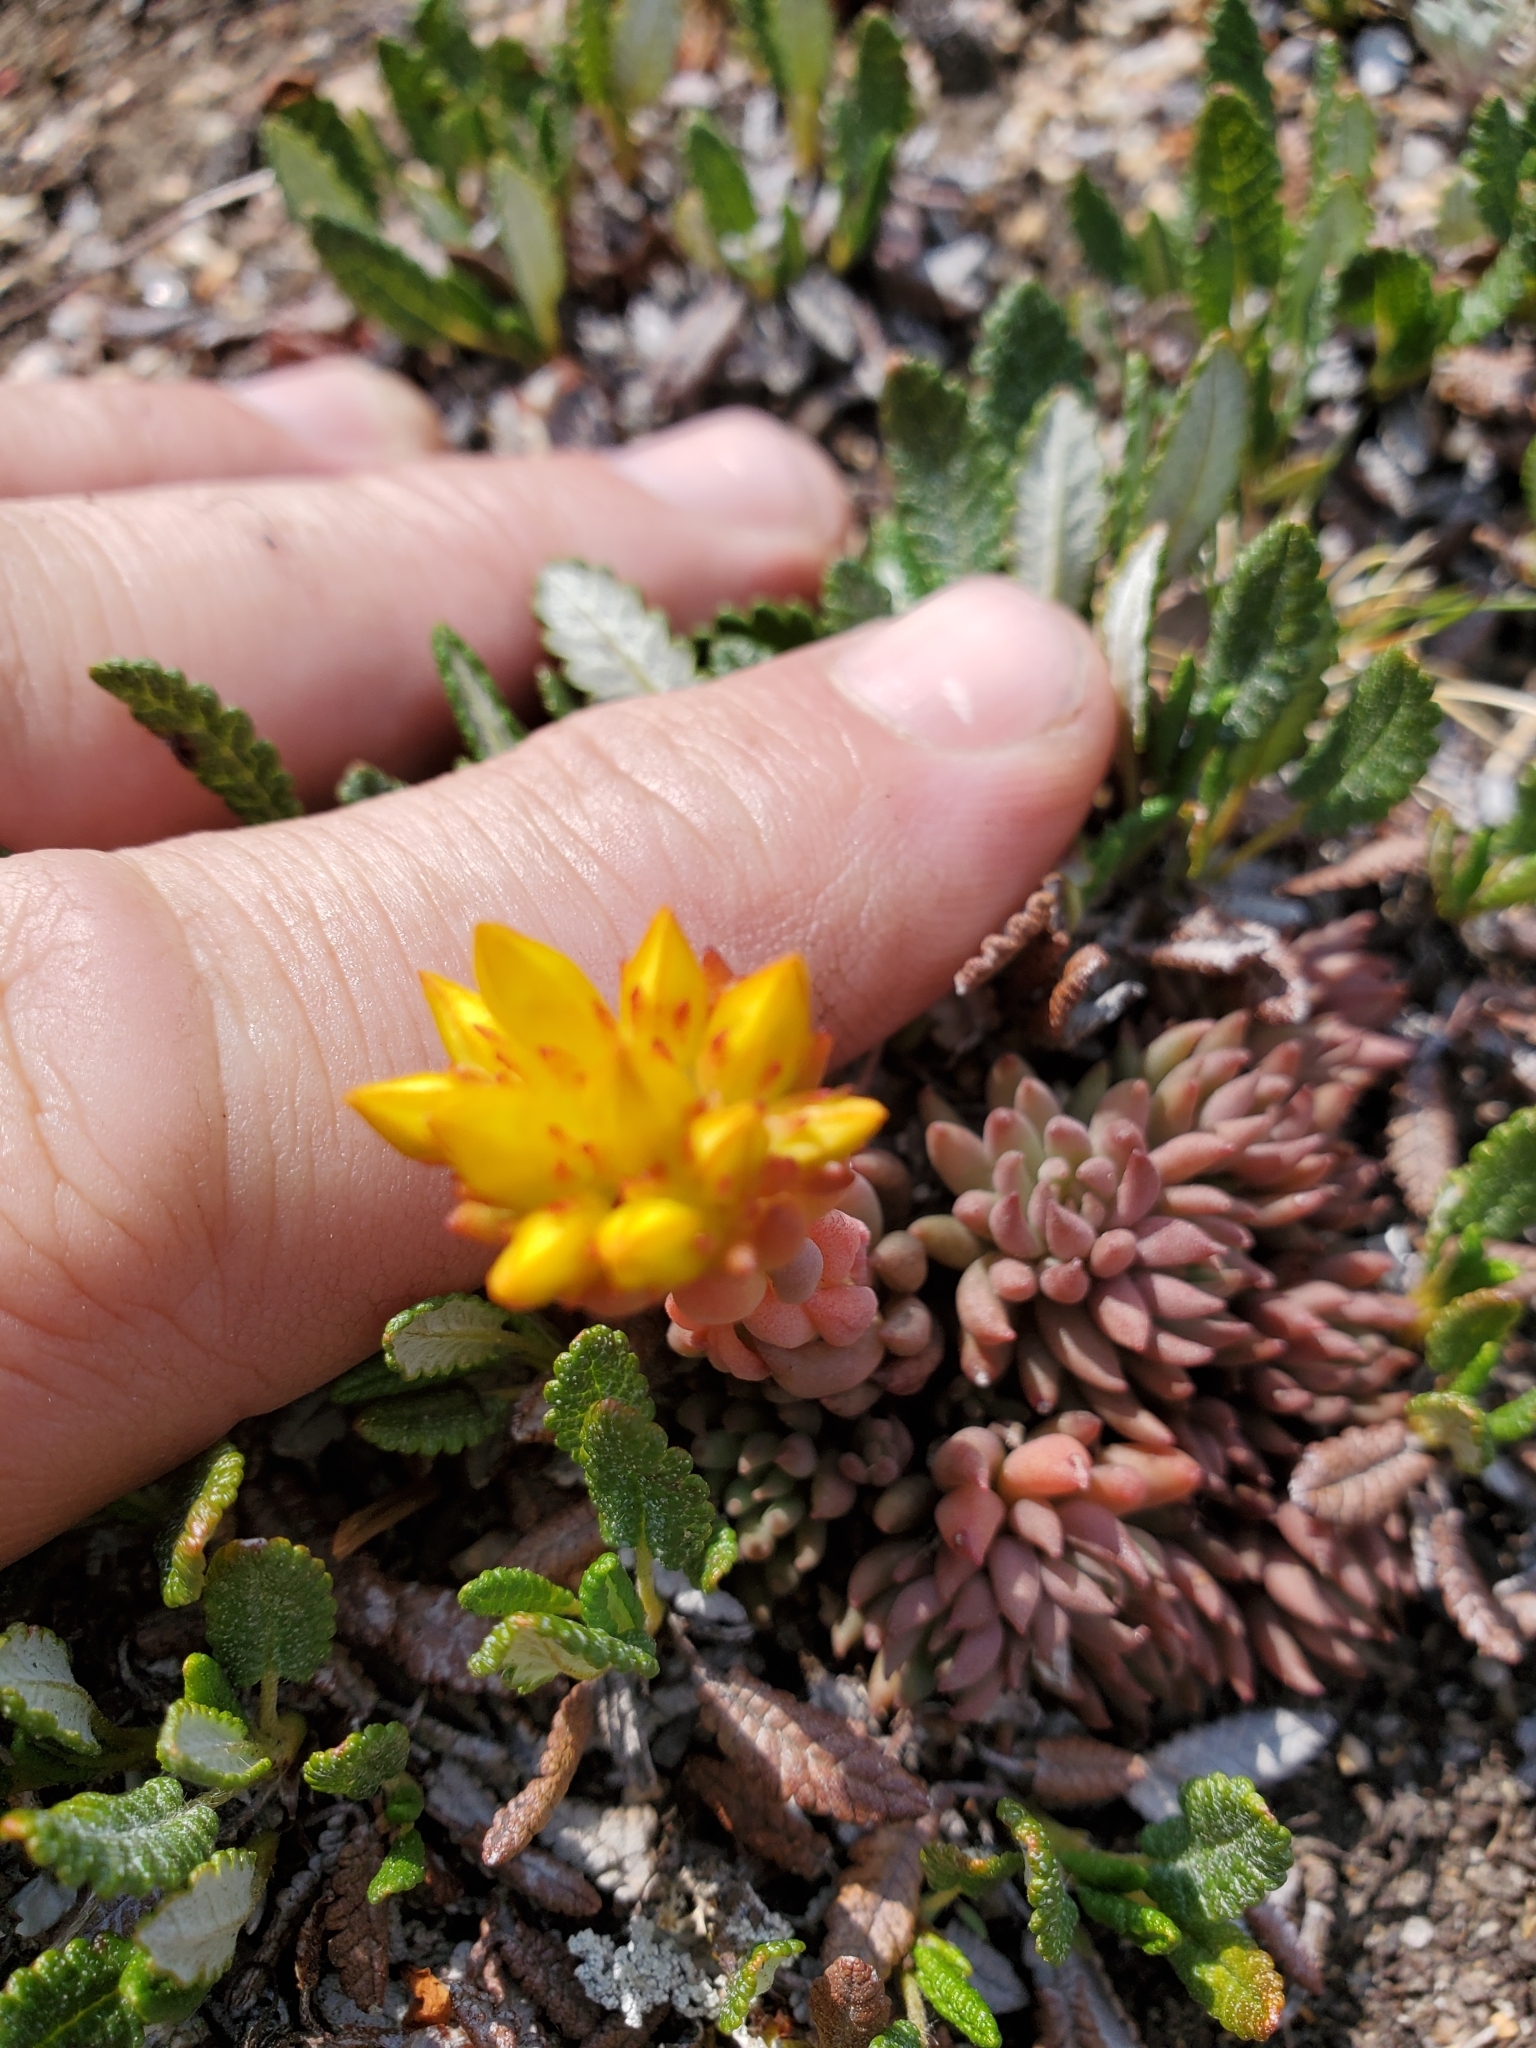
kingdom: Plantae
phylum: Tracheophyta
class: Magnoliopsida
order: Saxifragales
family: Crassulaceae
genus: Sedum
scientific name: Sedum lanceolatum
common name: Common stonecrop
